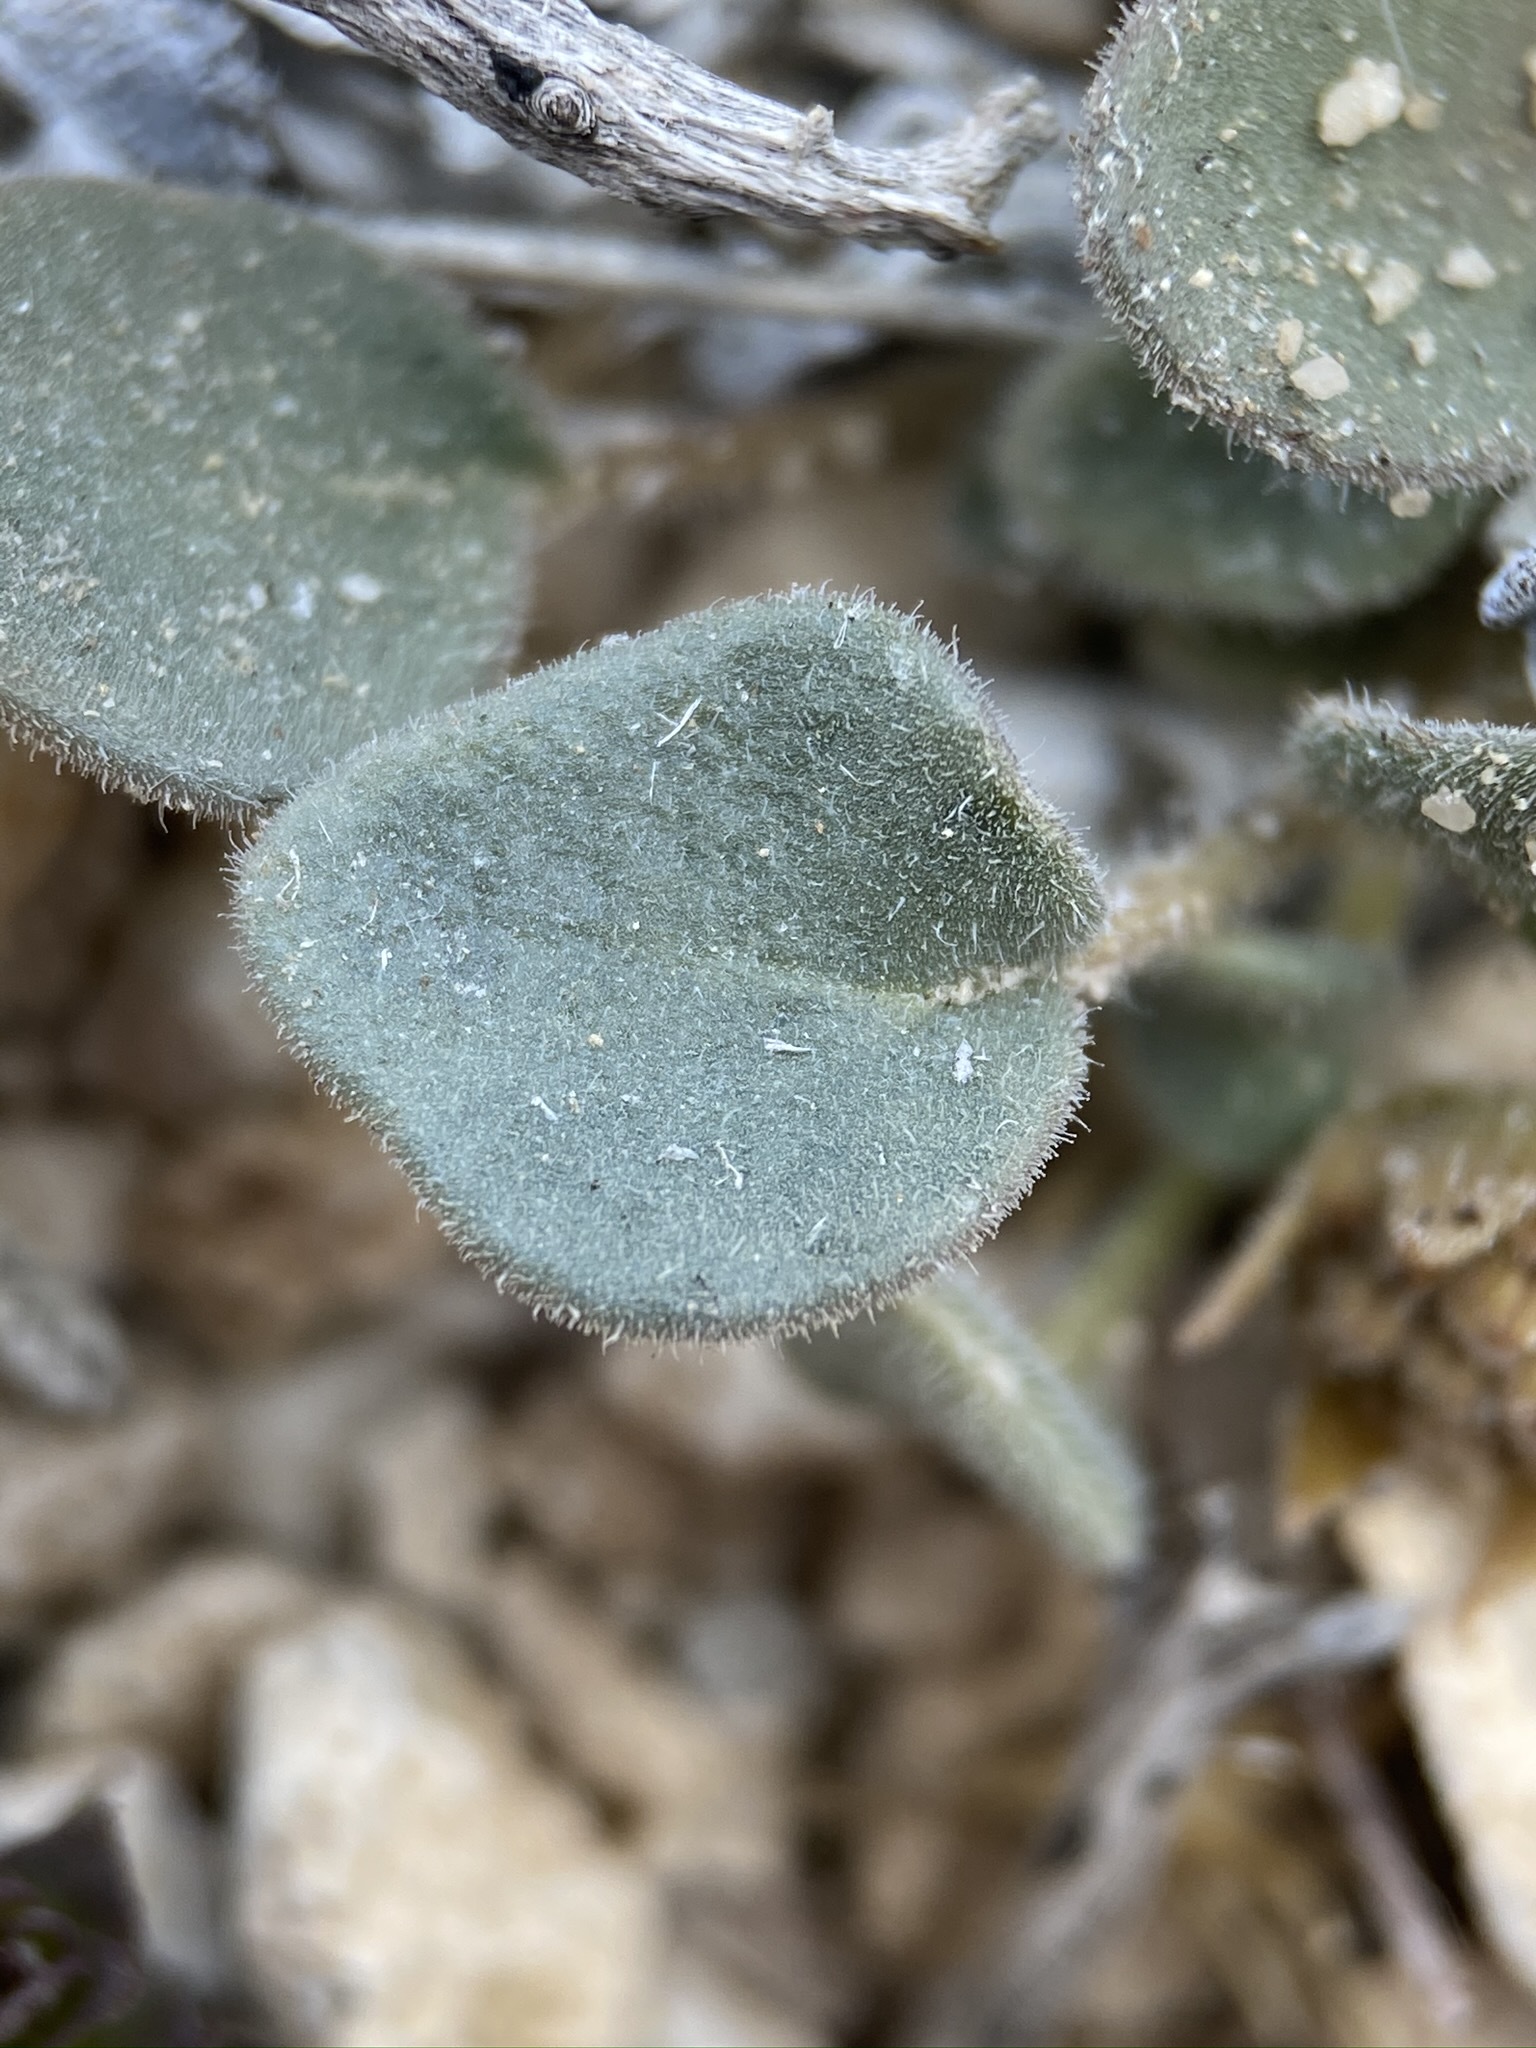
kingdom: Plantae
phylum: Tracheophyta
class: Magnoliopsida
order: Caryophyllales
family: Nyctaginaceae
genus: Abronia
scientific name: Abronia nana
